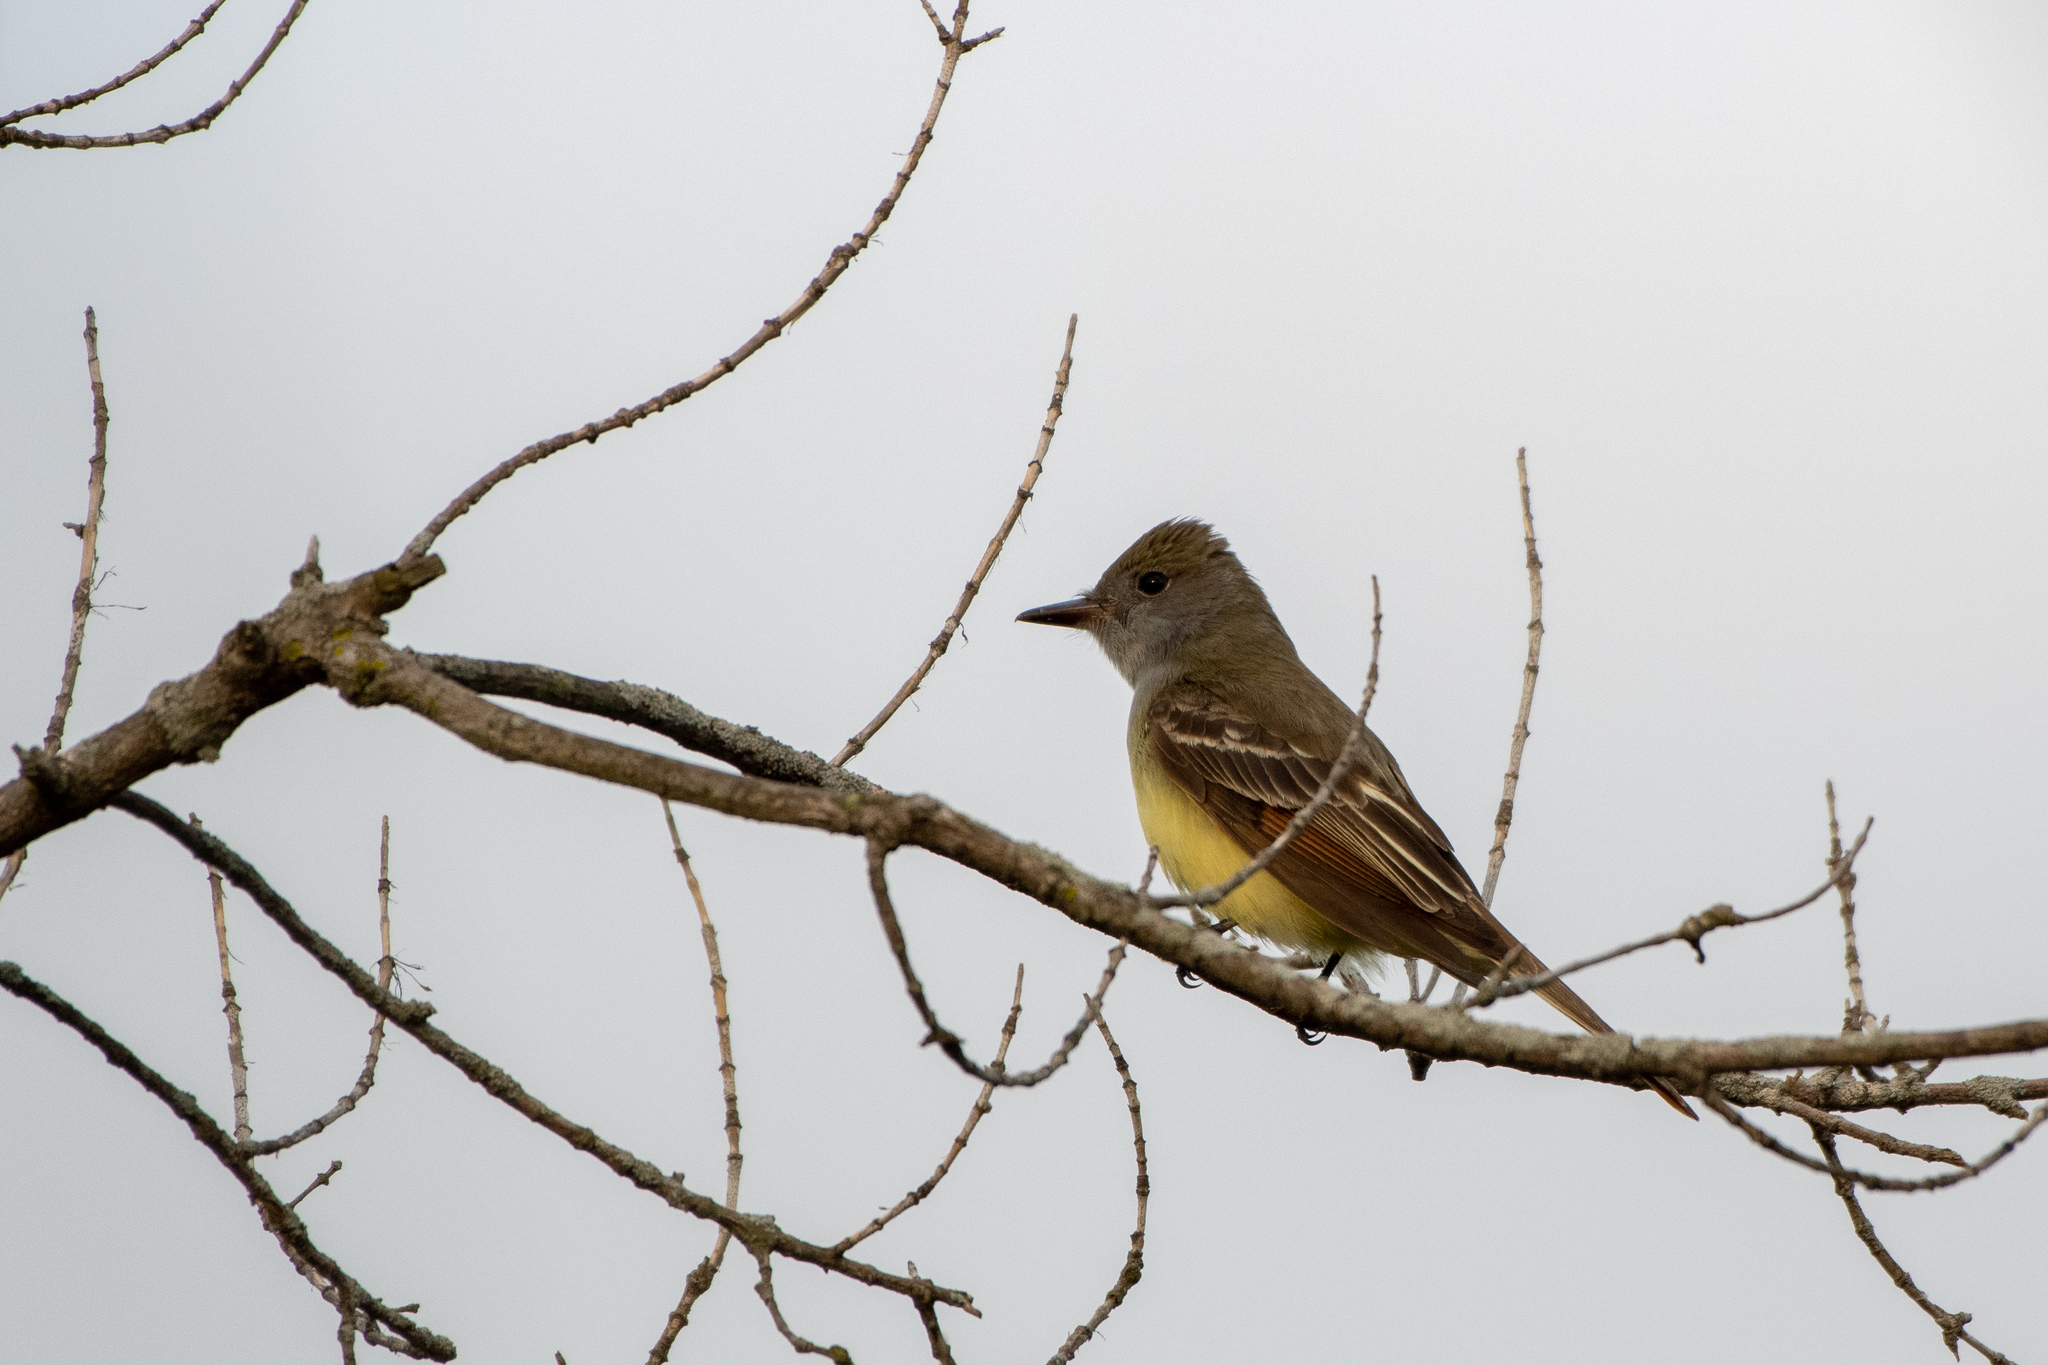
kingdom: Animalia
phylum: Chordata
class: Aves
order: Passeriformes
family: Tyrannidae
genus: Myiarchus
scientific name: Myiarchus crinitus
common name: Great crested flycatcher
